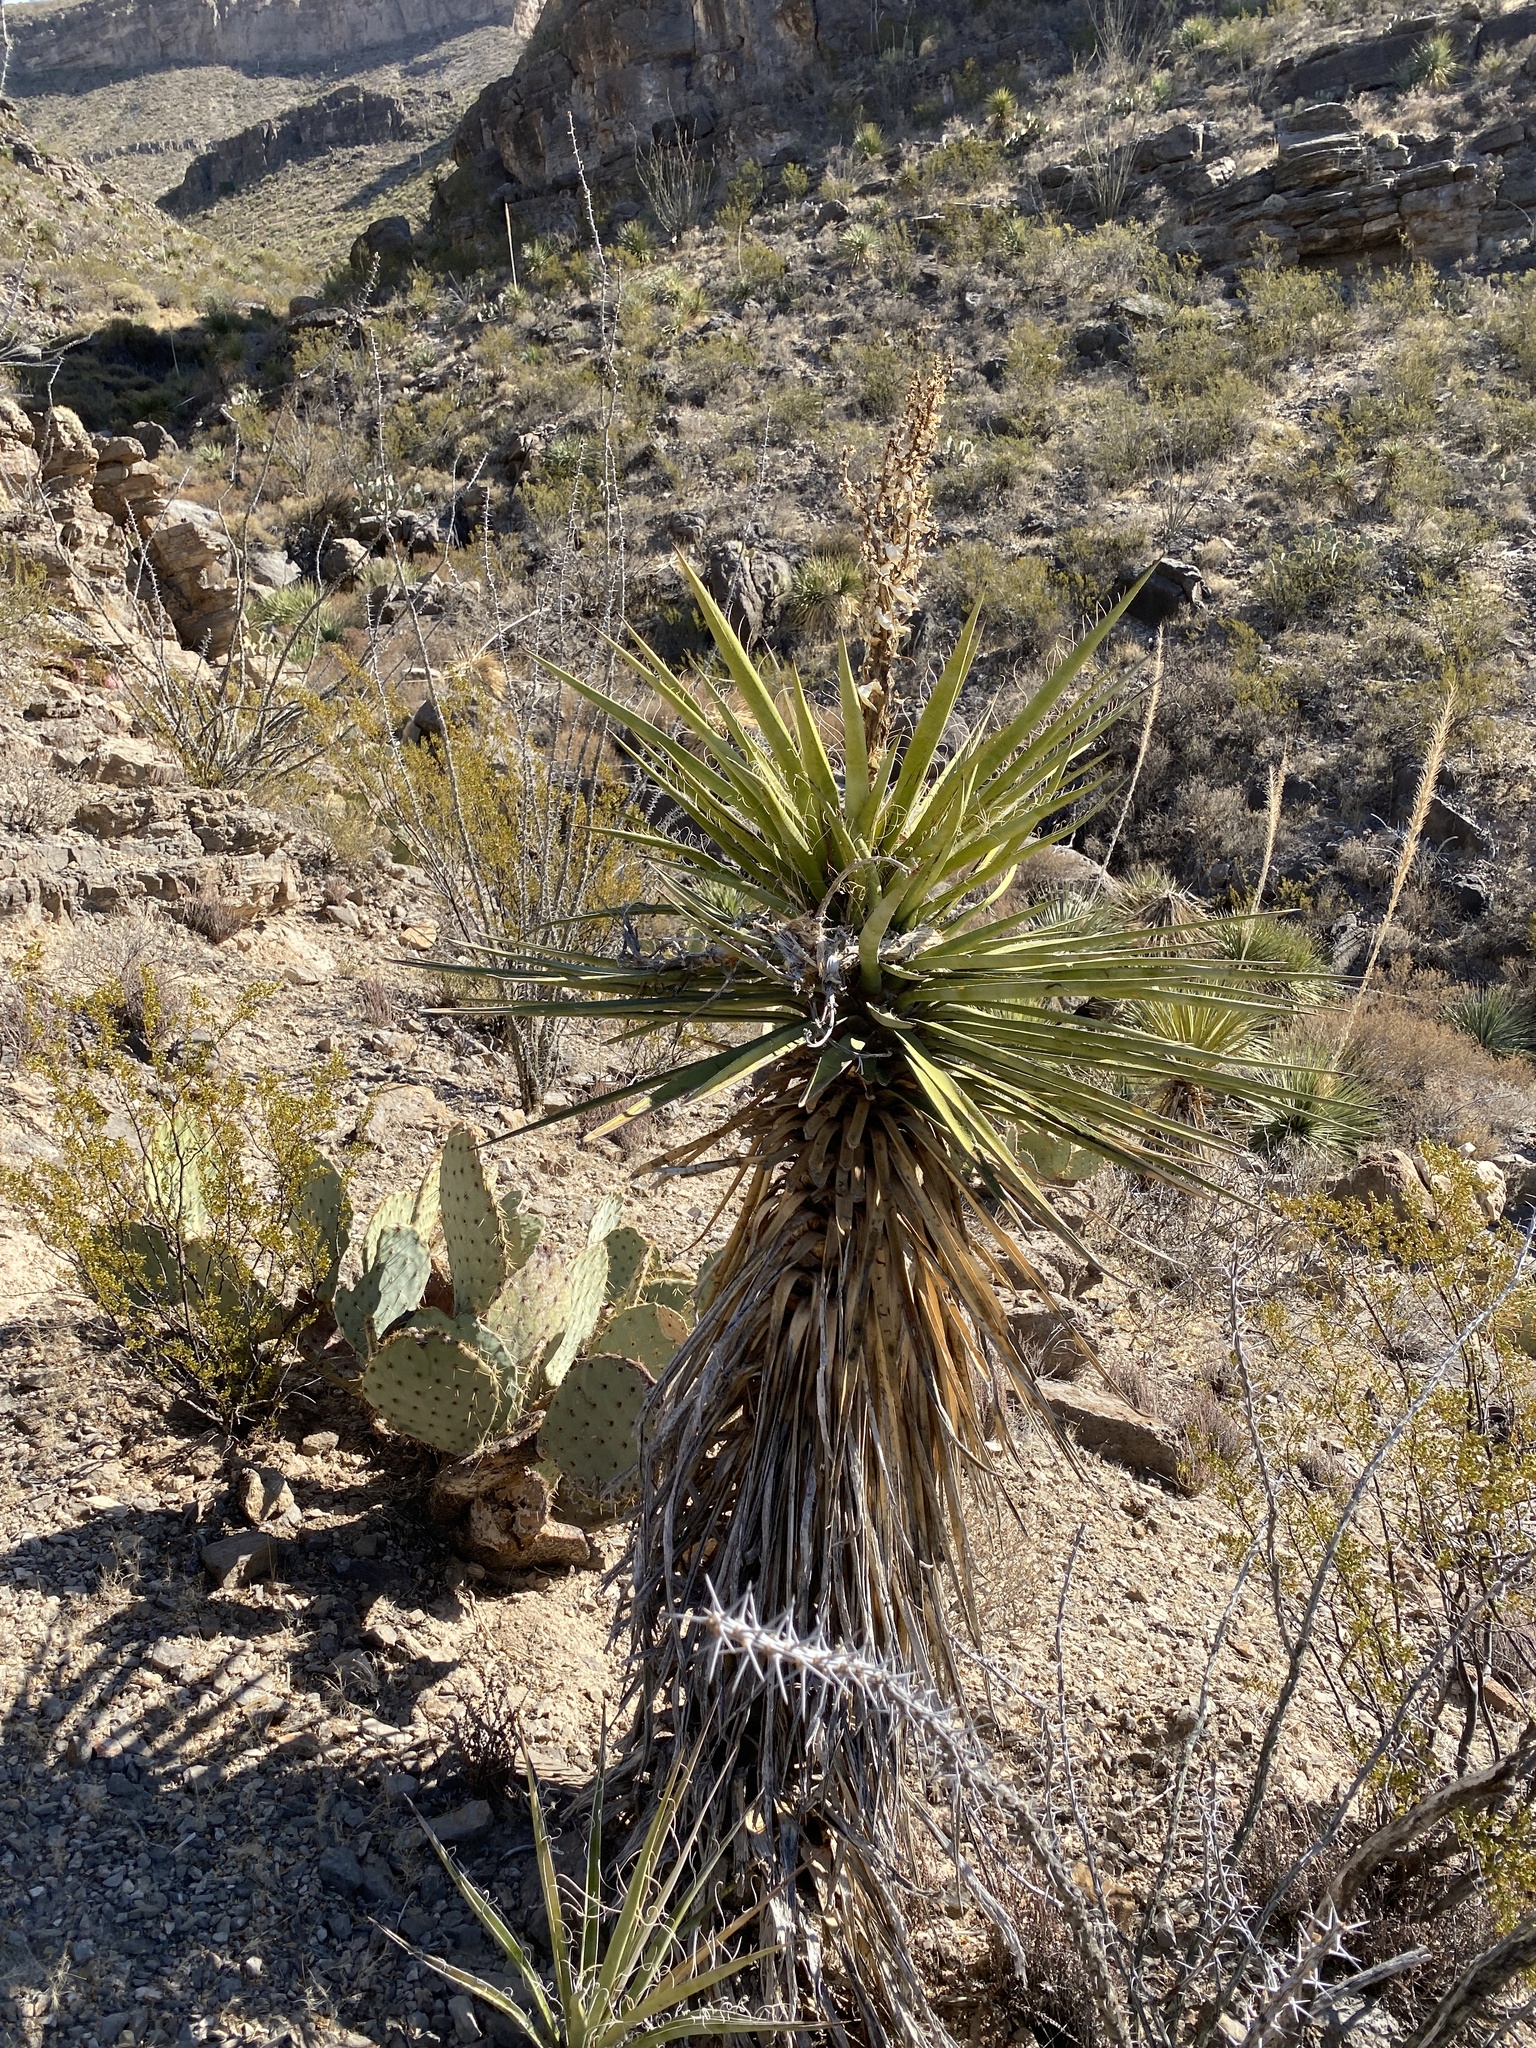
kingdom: Plantae
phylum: Tracheophyta
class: Liliopsida
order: Asparagales
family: Asparagaceae
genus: Yucca
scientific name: Yucca treculiana
